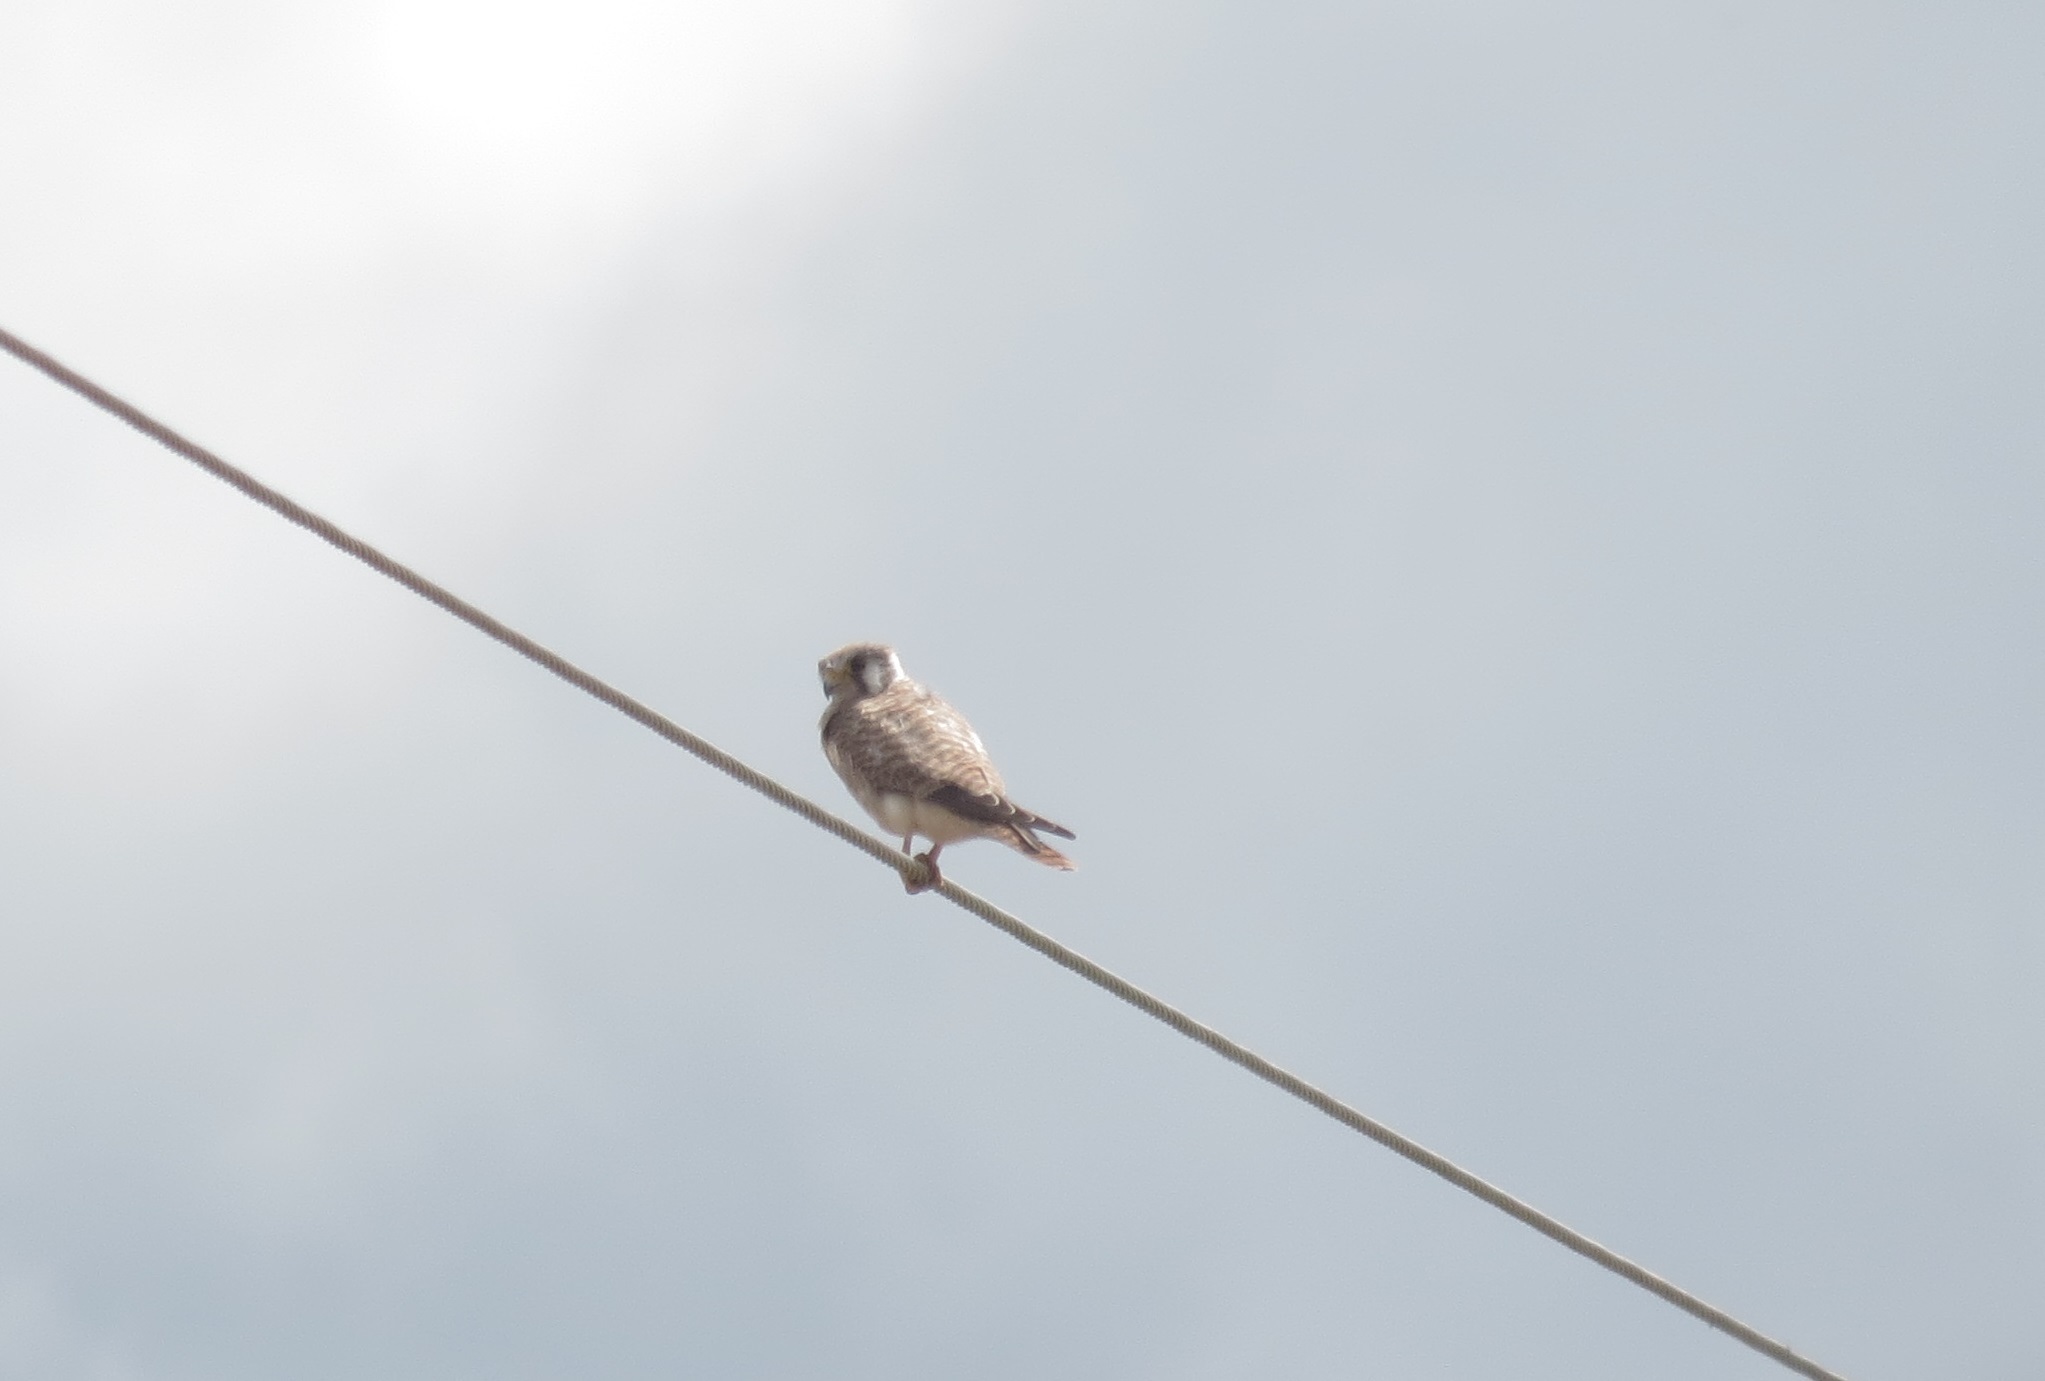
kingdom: Animalia
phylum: Chordata
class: Aves
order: Falconiformes
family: Falconidae
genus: Falco
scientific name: Falco sparverius
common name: American kestrel
